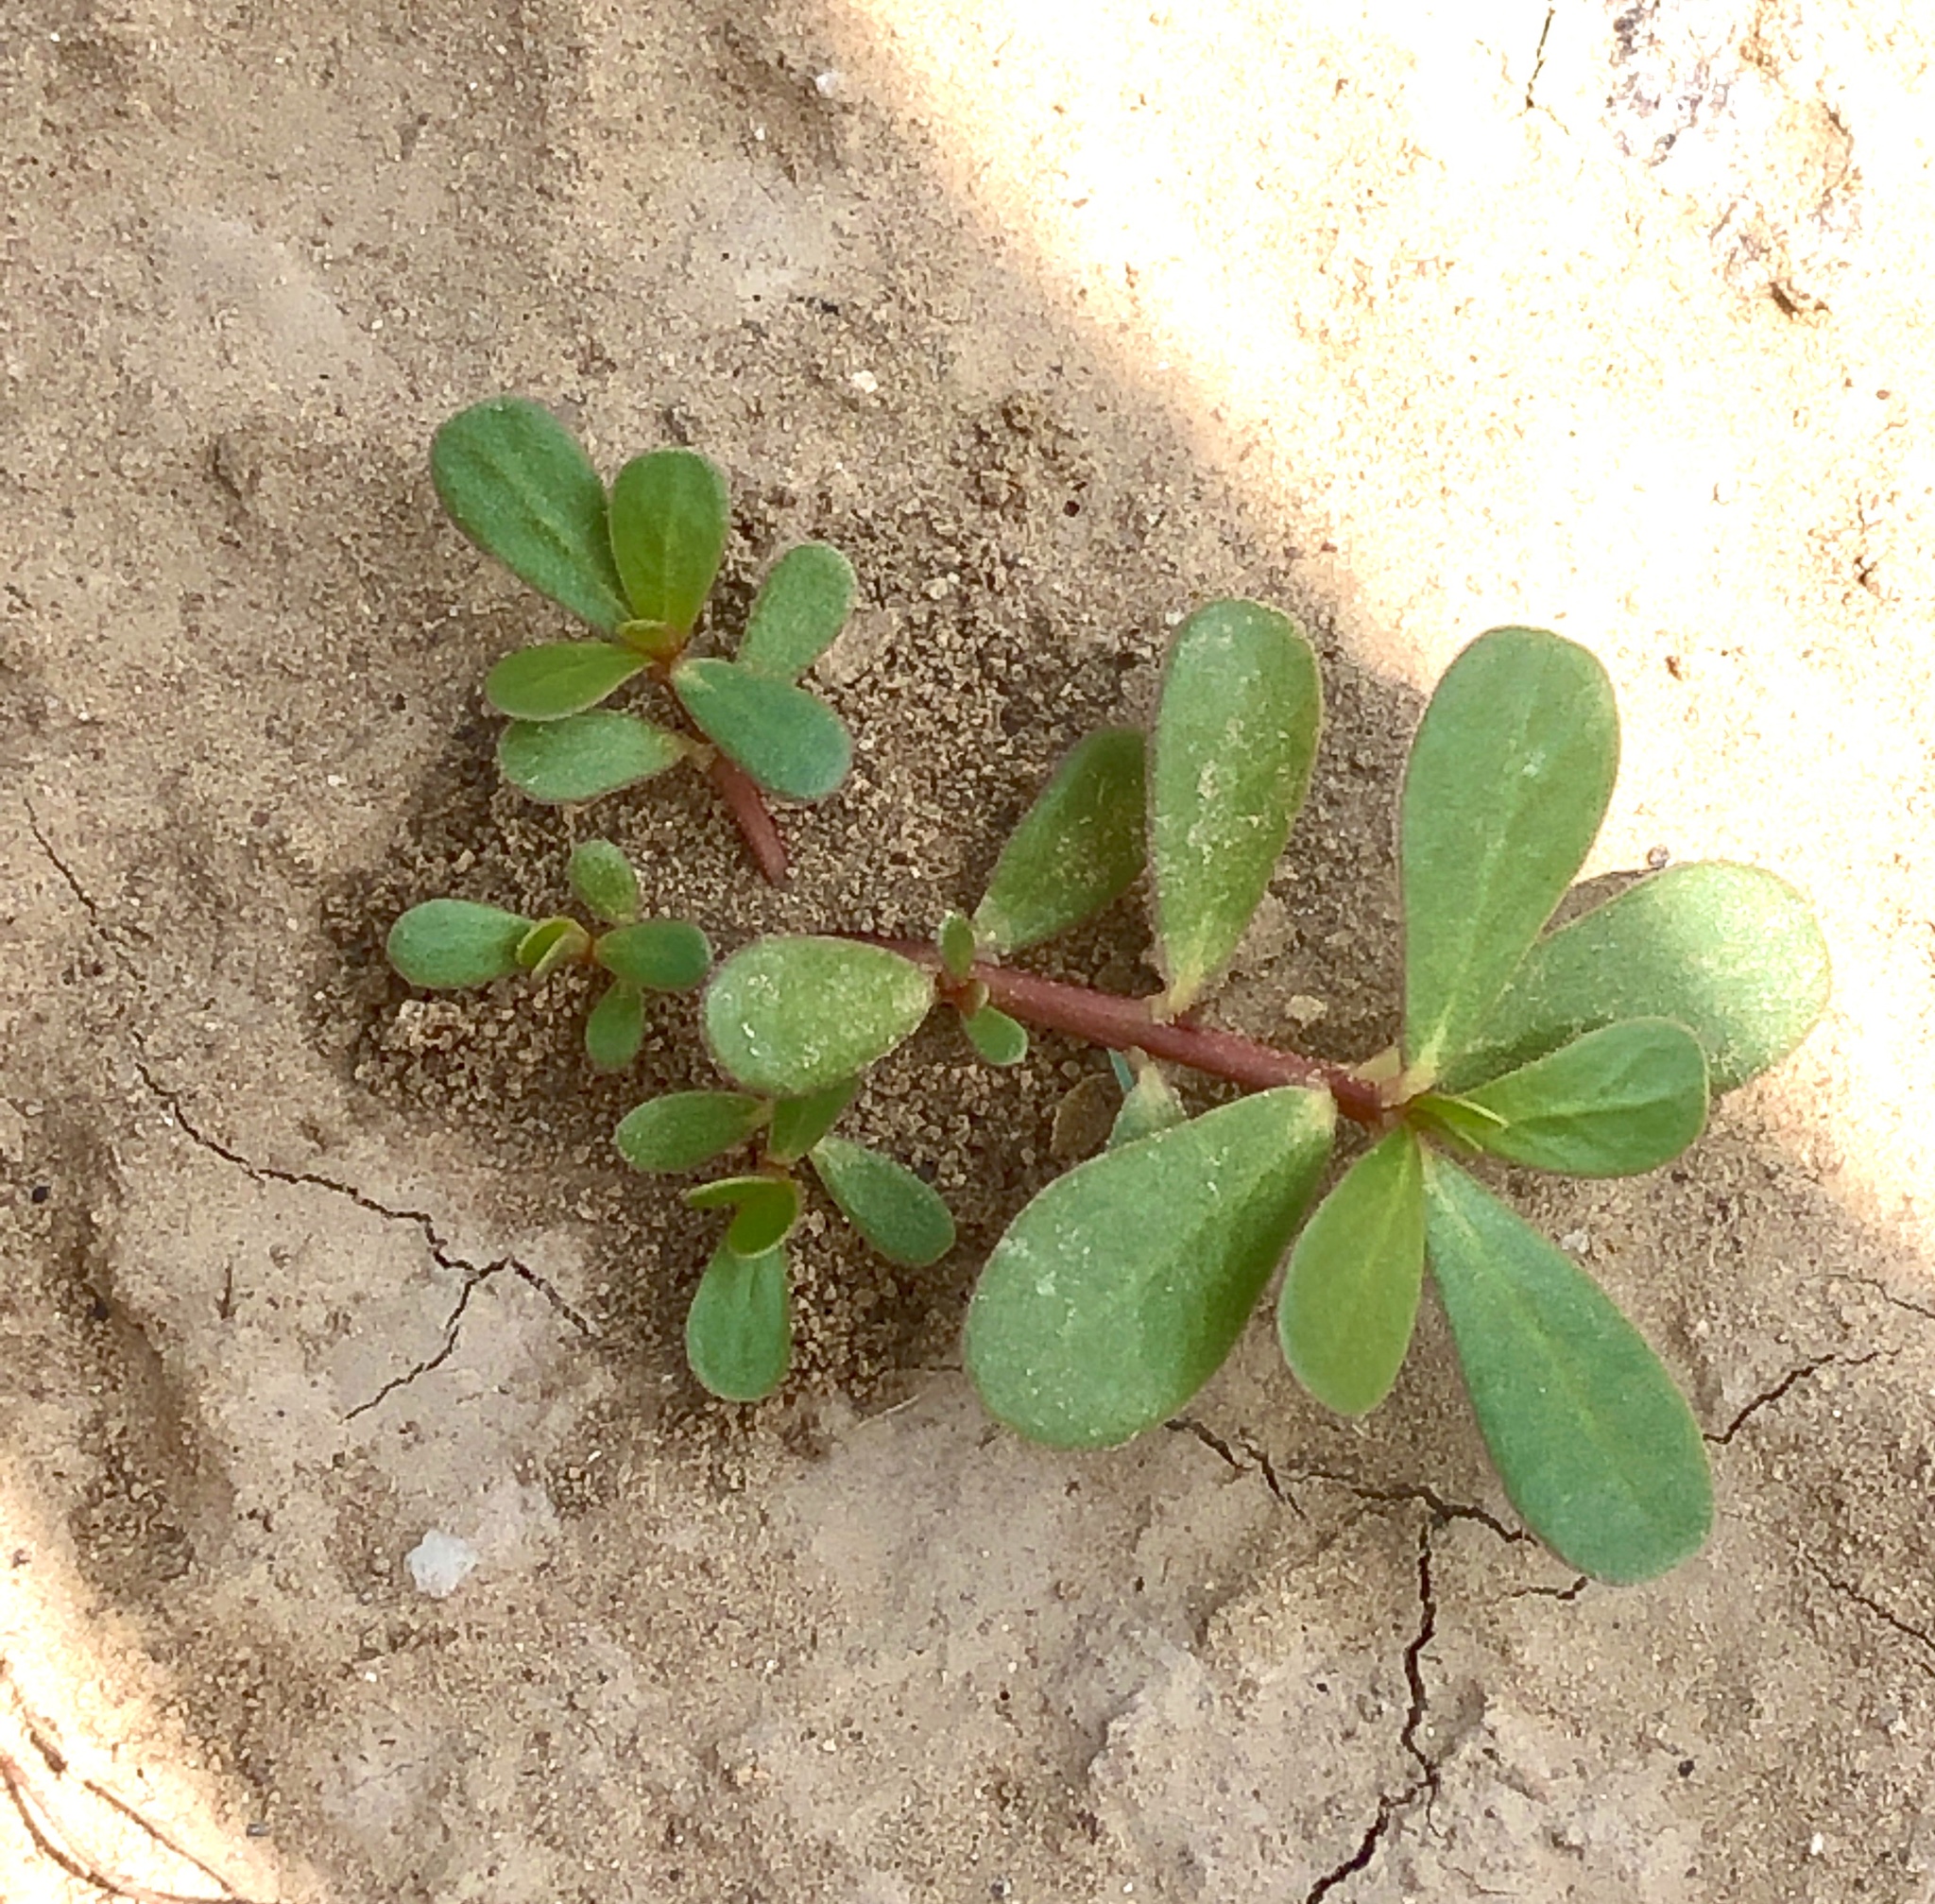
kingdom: Plantae
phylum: Tracheophyta
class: Magnoliopsida
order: Caryophyllales
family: Portulacaceae
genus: Portulaca
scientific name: Portulaca oleracea
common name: Common purslane
